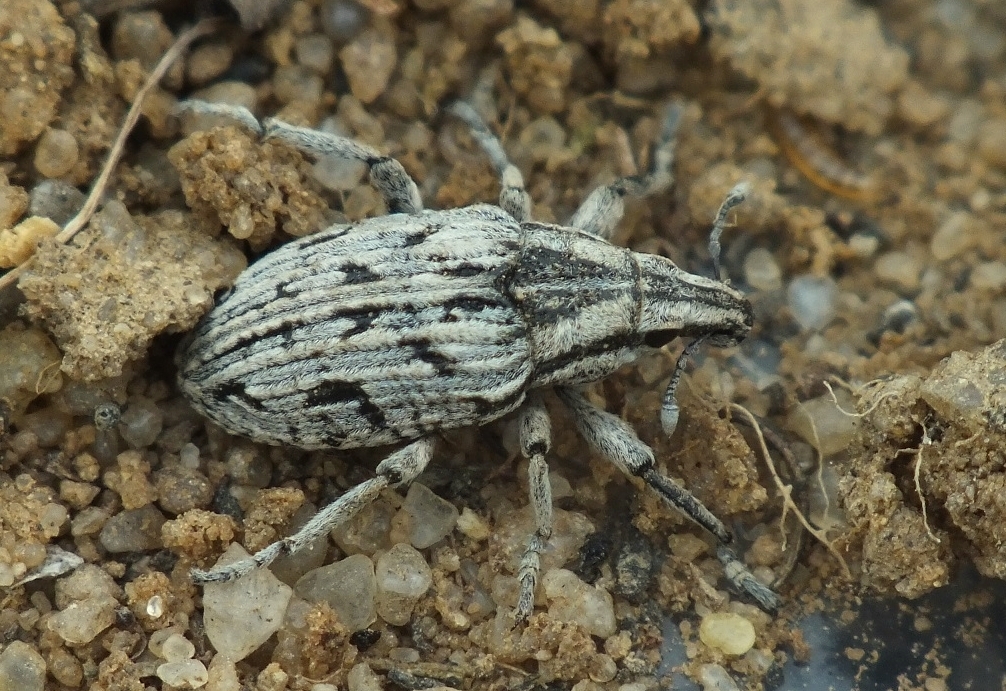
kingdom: Animalia
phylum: Arthropoda
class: Insecta
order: Coleoptera
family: Curculionidae
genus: Cleonis
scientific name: Cleonis quadrivittata
